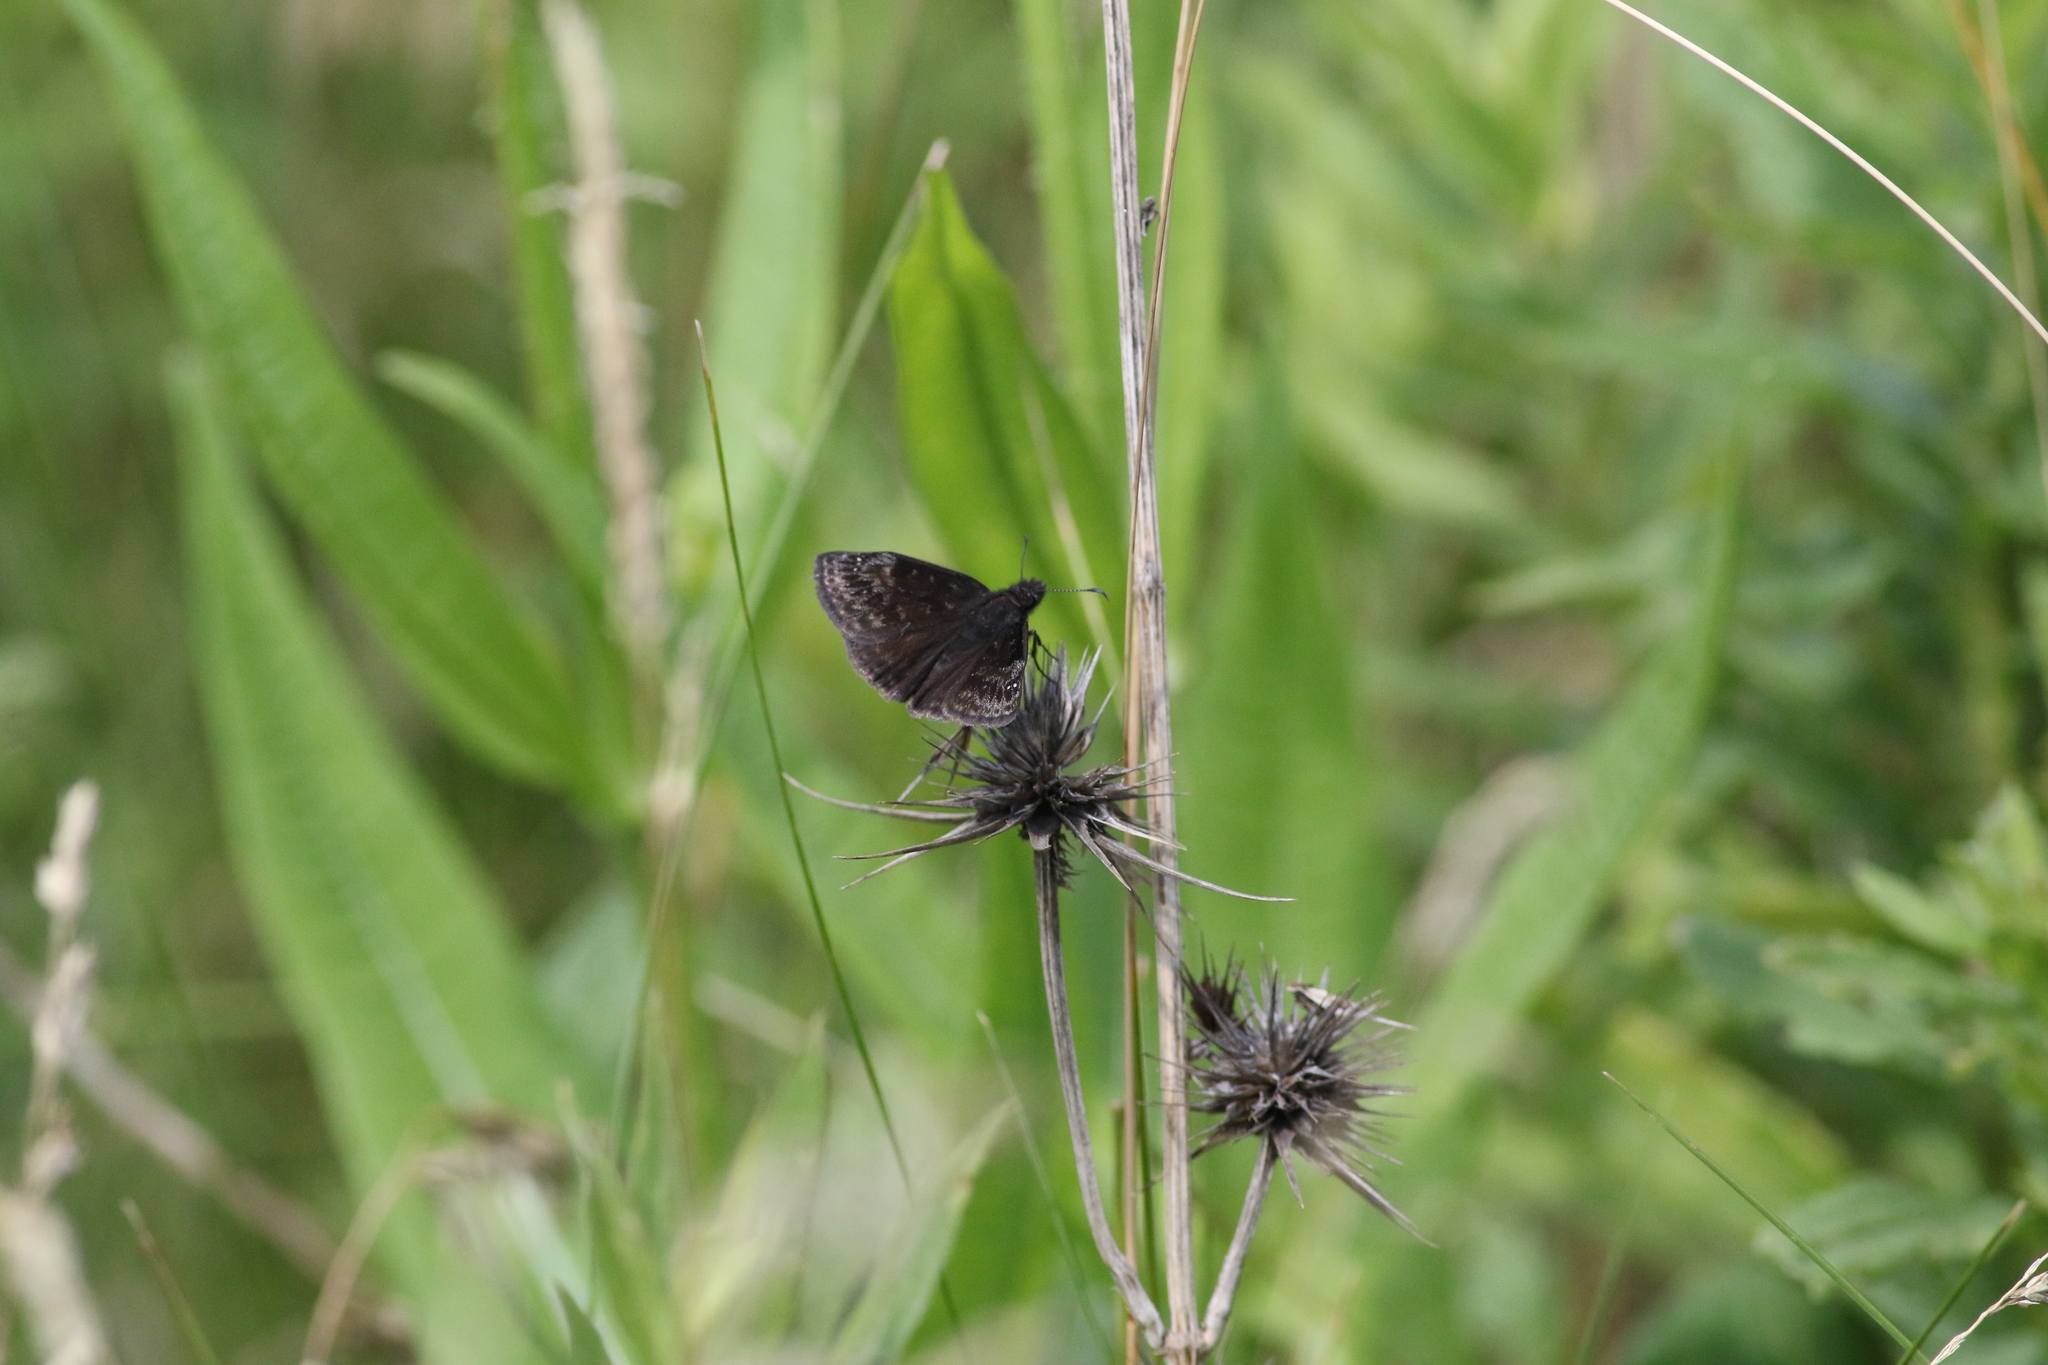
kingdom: Animalia
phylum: Arthropoda
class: Insecta
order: Lepidoptera
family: Hesperiidae
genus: Erynnis
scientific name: Erynnis baptisiae
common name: Wild indigo duskywing
